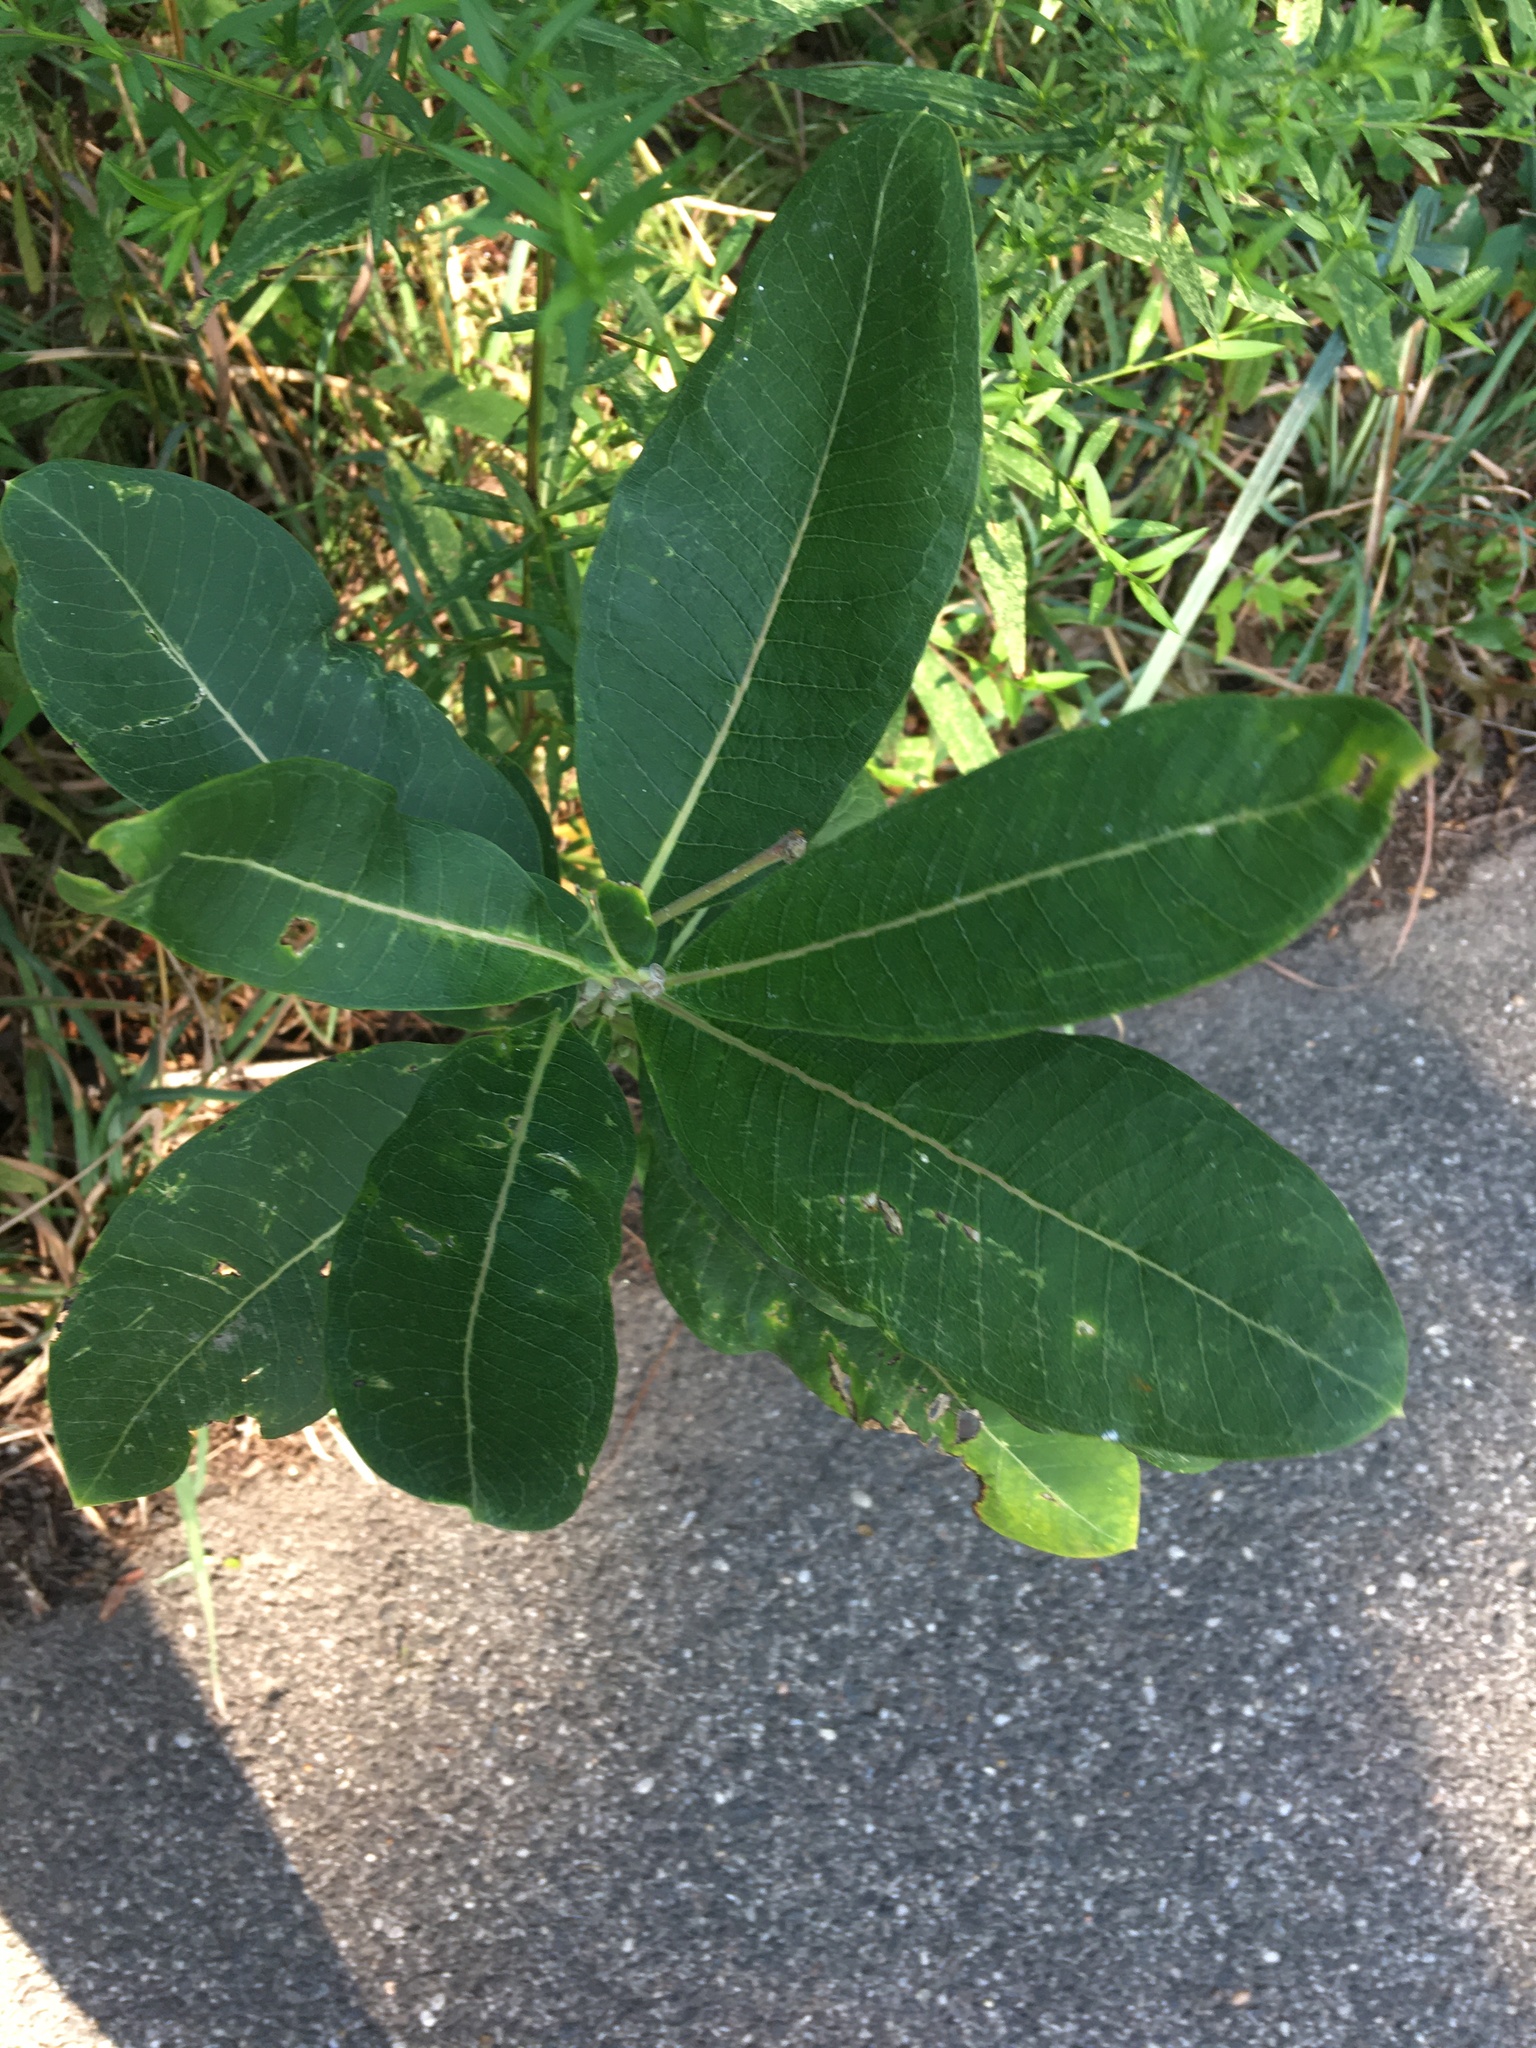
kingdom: Plantae
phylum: Tracheophyta
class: Magnoliopsida
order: Gentianales
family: Apocynaceae
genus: Asclepias
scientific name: Asclepias syriaca
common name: Common milkweed
